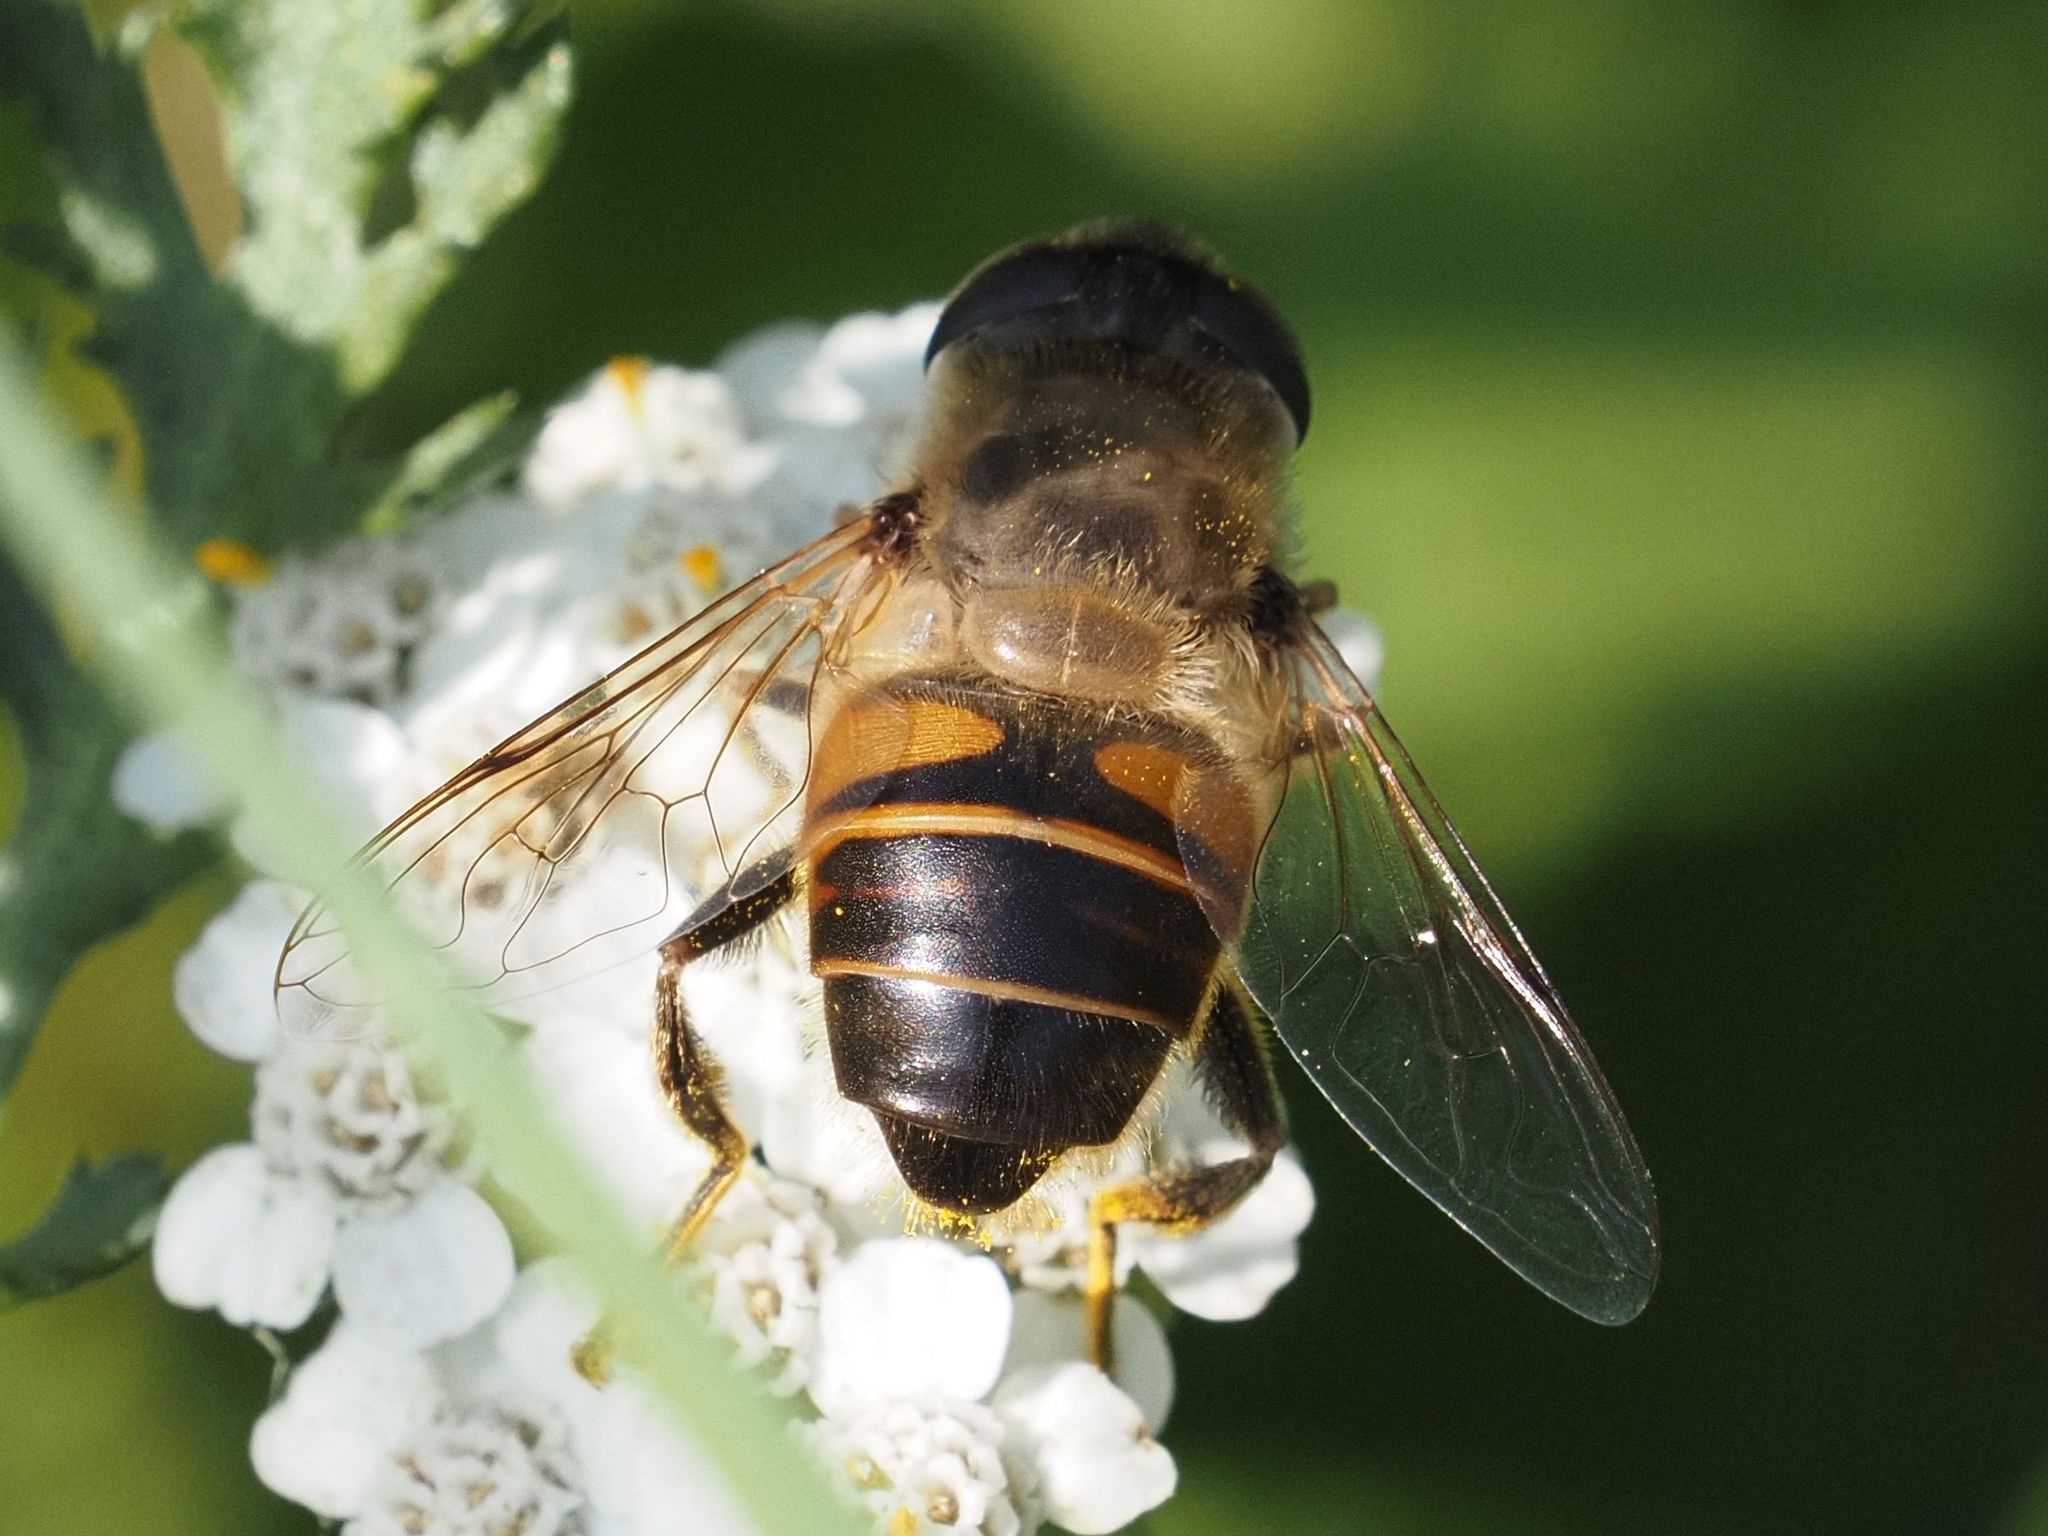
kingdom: Animalia
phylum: Arthropoda
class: Insecta
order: Diptera
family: Syrphidae
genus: Eristalis
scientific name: Eristalis tenax
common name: Drone fly
